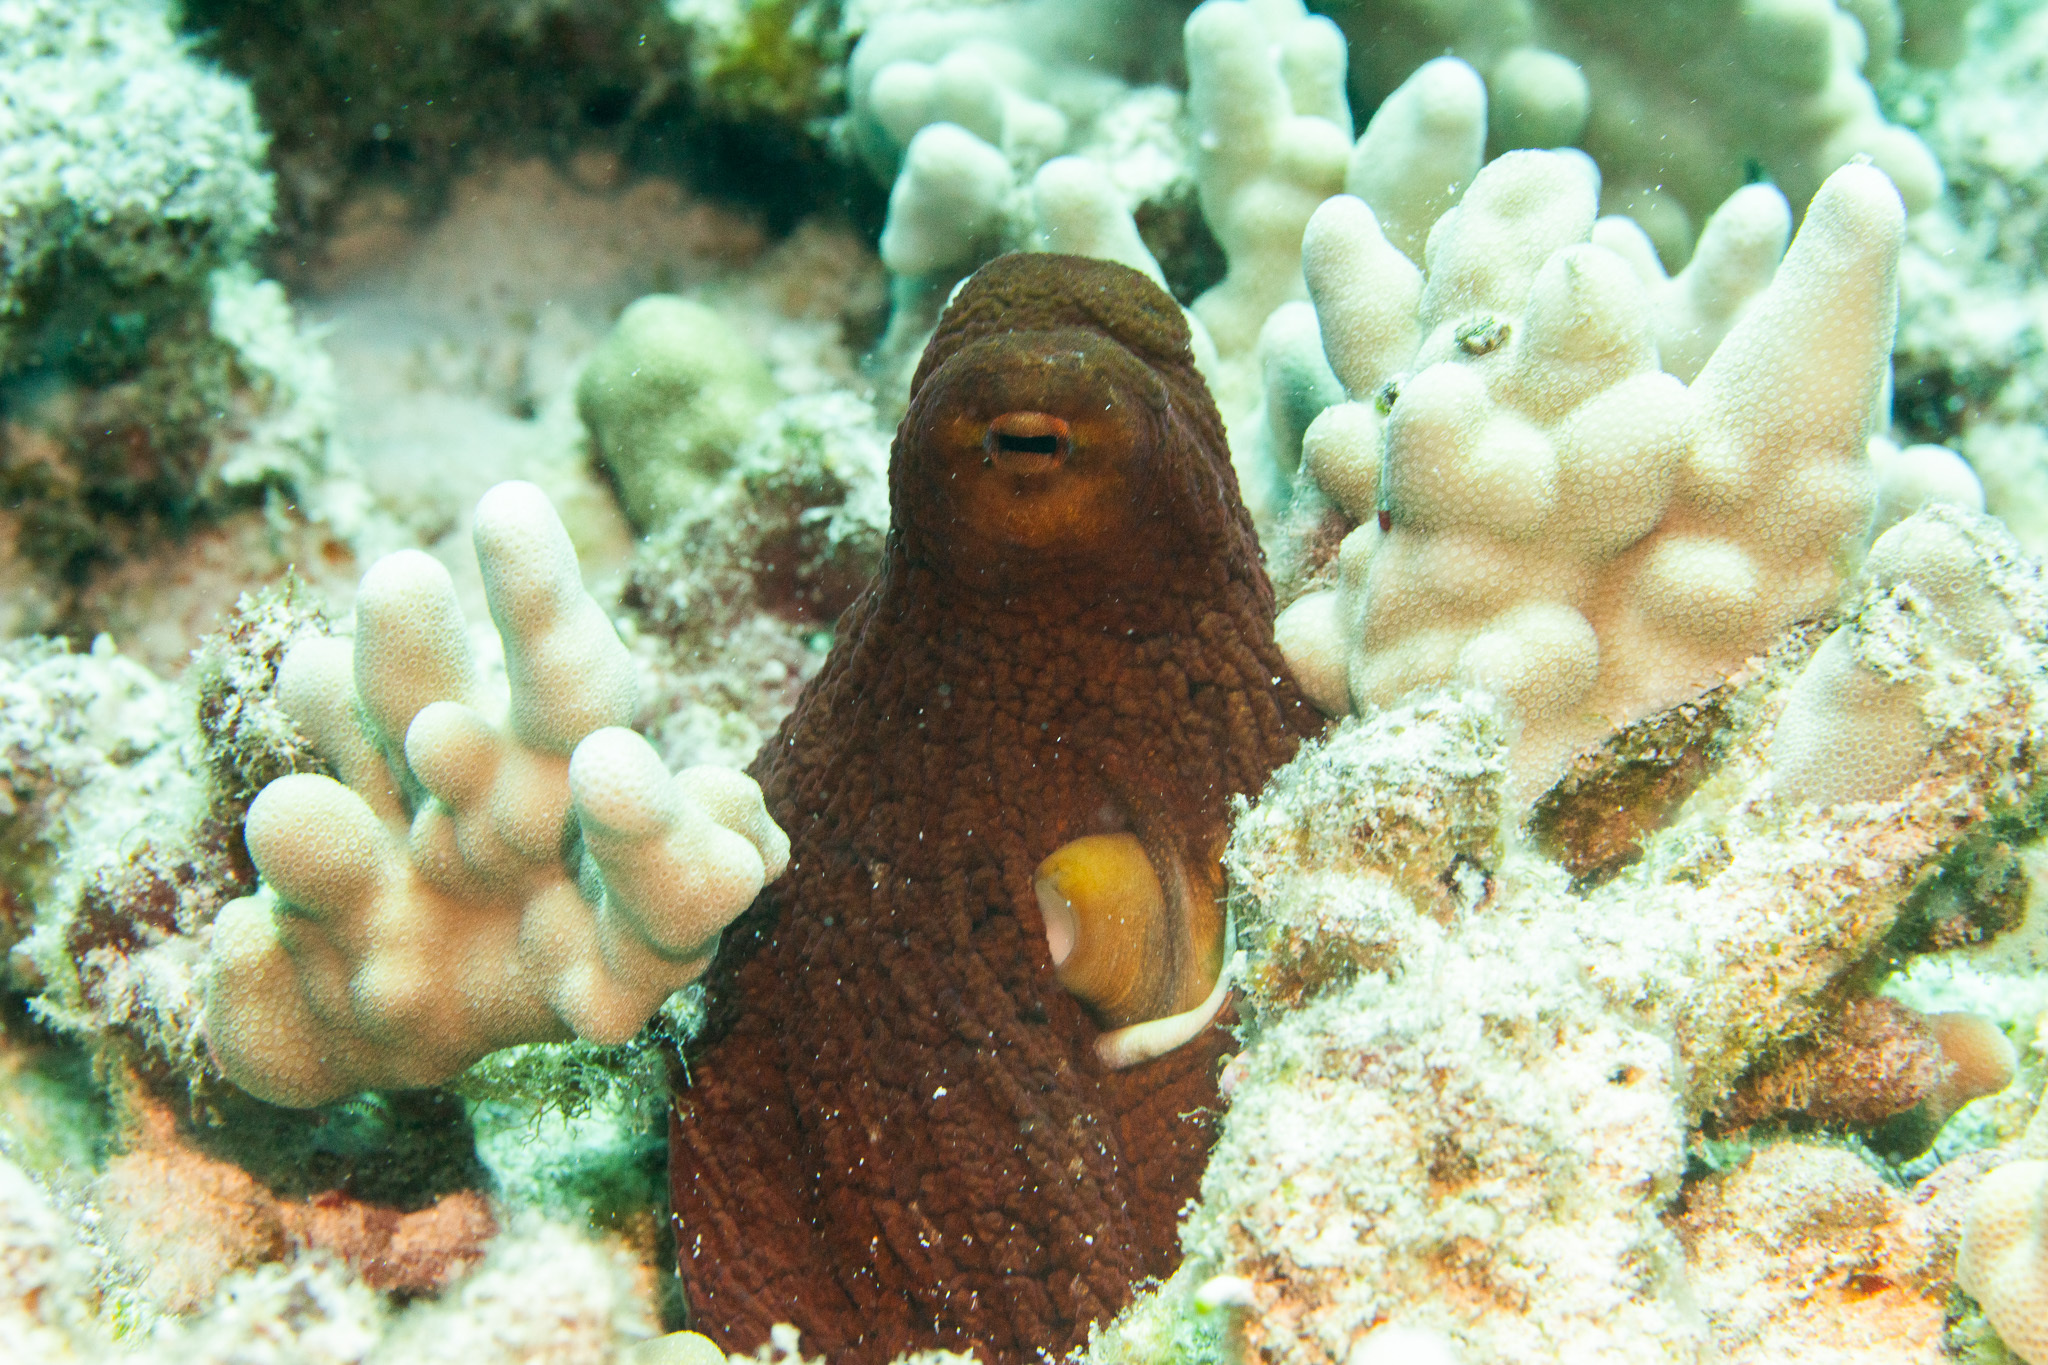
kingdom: Animalia
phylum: Mollusca
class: Cephalopoda
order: Octopoda
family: Octopodidae
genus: Octopus
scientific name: Octopus cyanea
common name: Cyane's octopus
